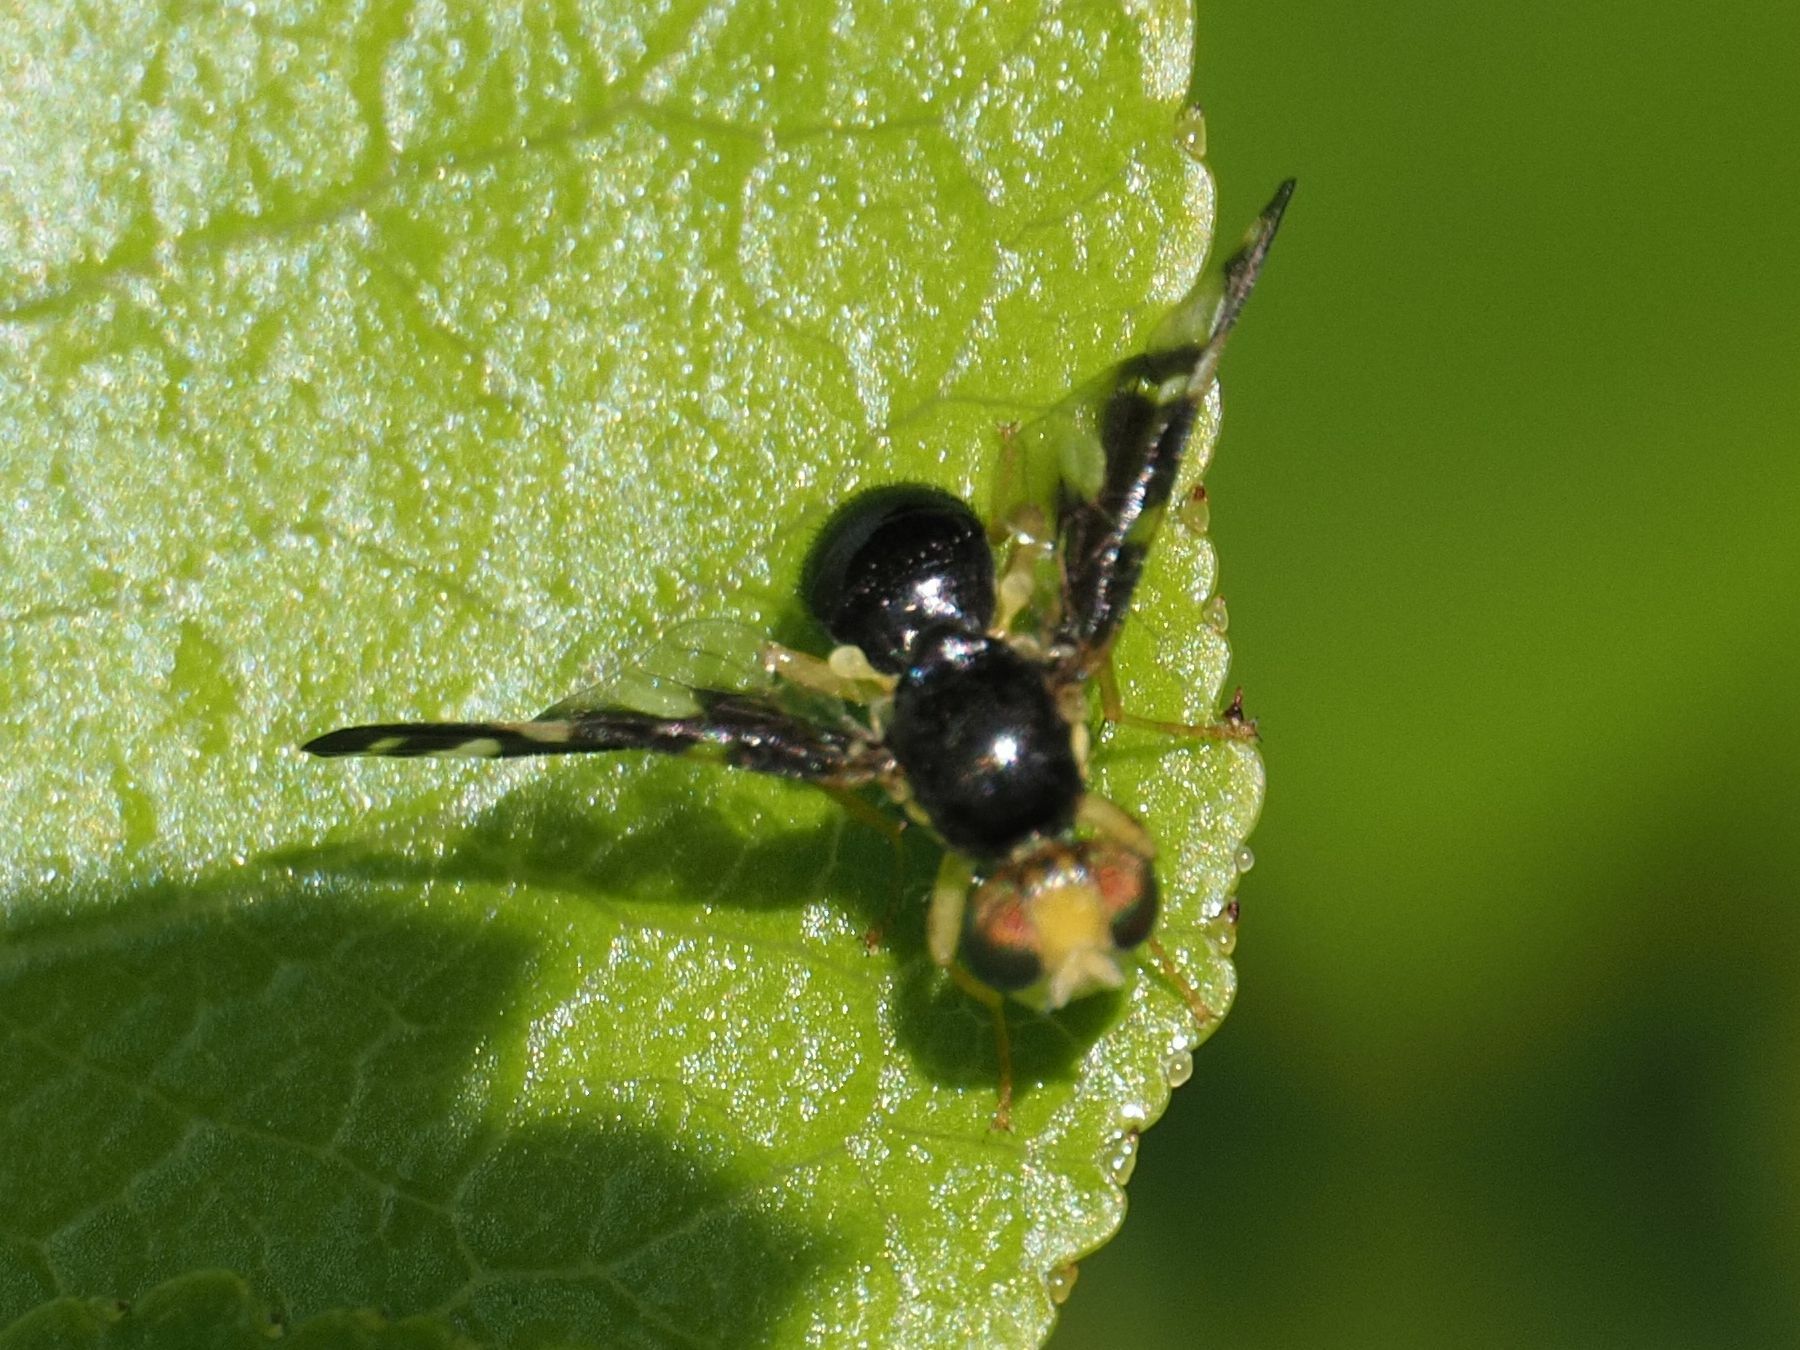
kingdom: Animalia
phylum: Arthropoda
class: Insecta
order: Diptera
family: Tephritidae
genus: Euleia
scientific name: Euleia heraclei
